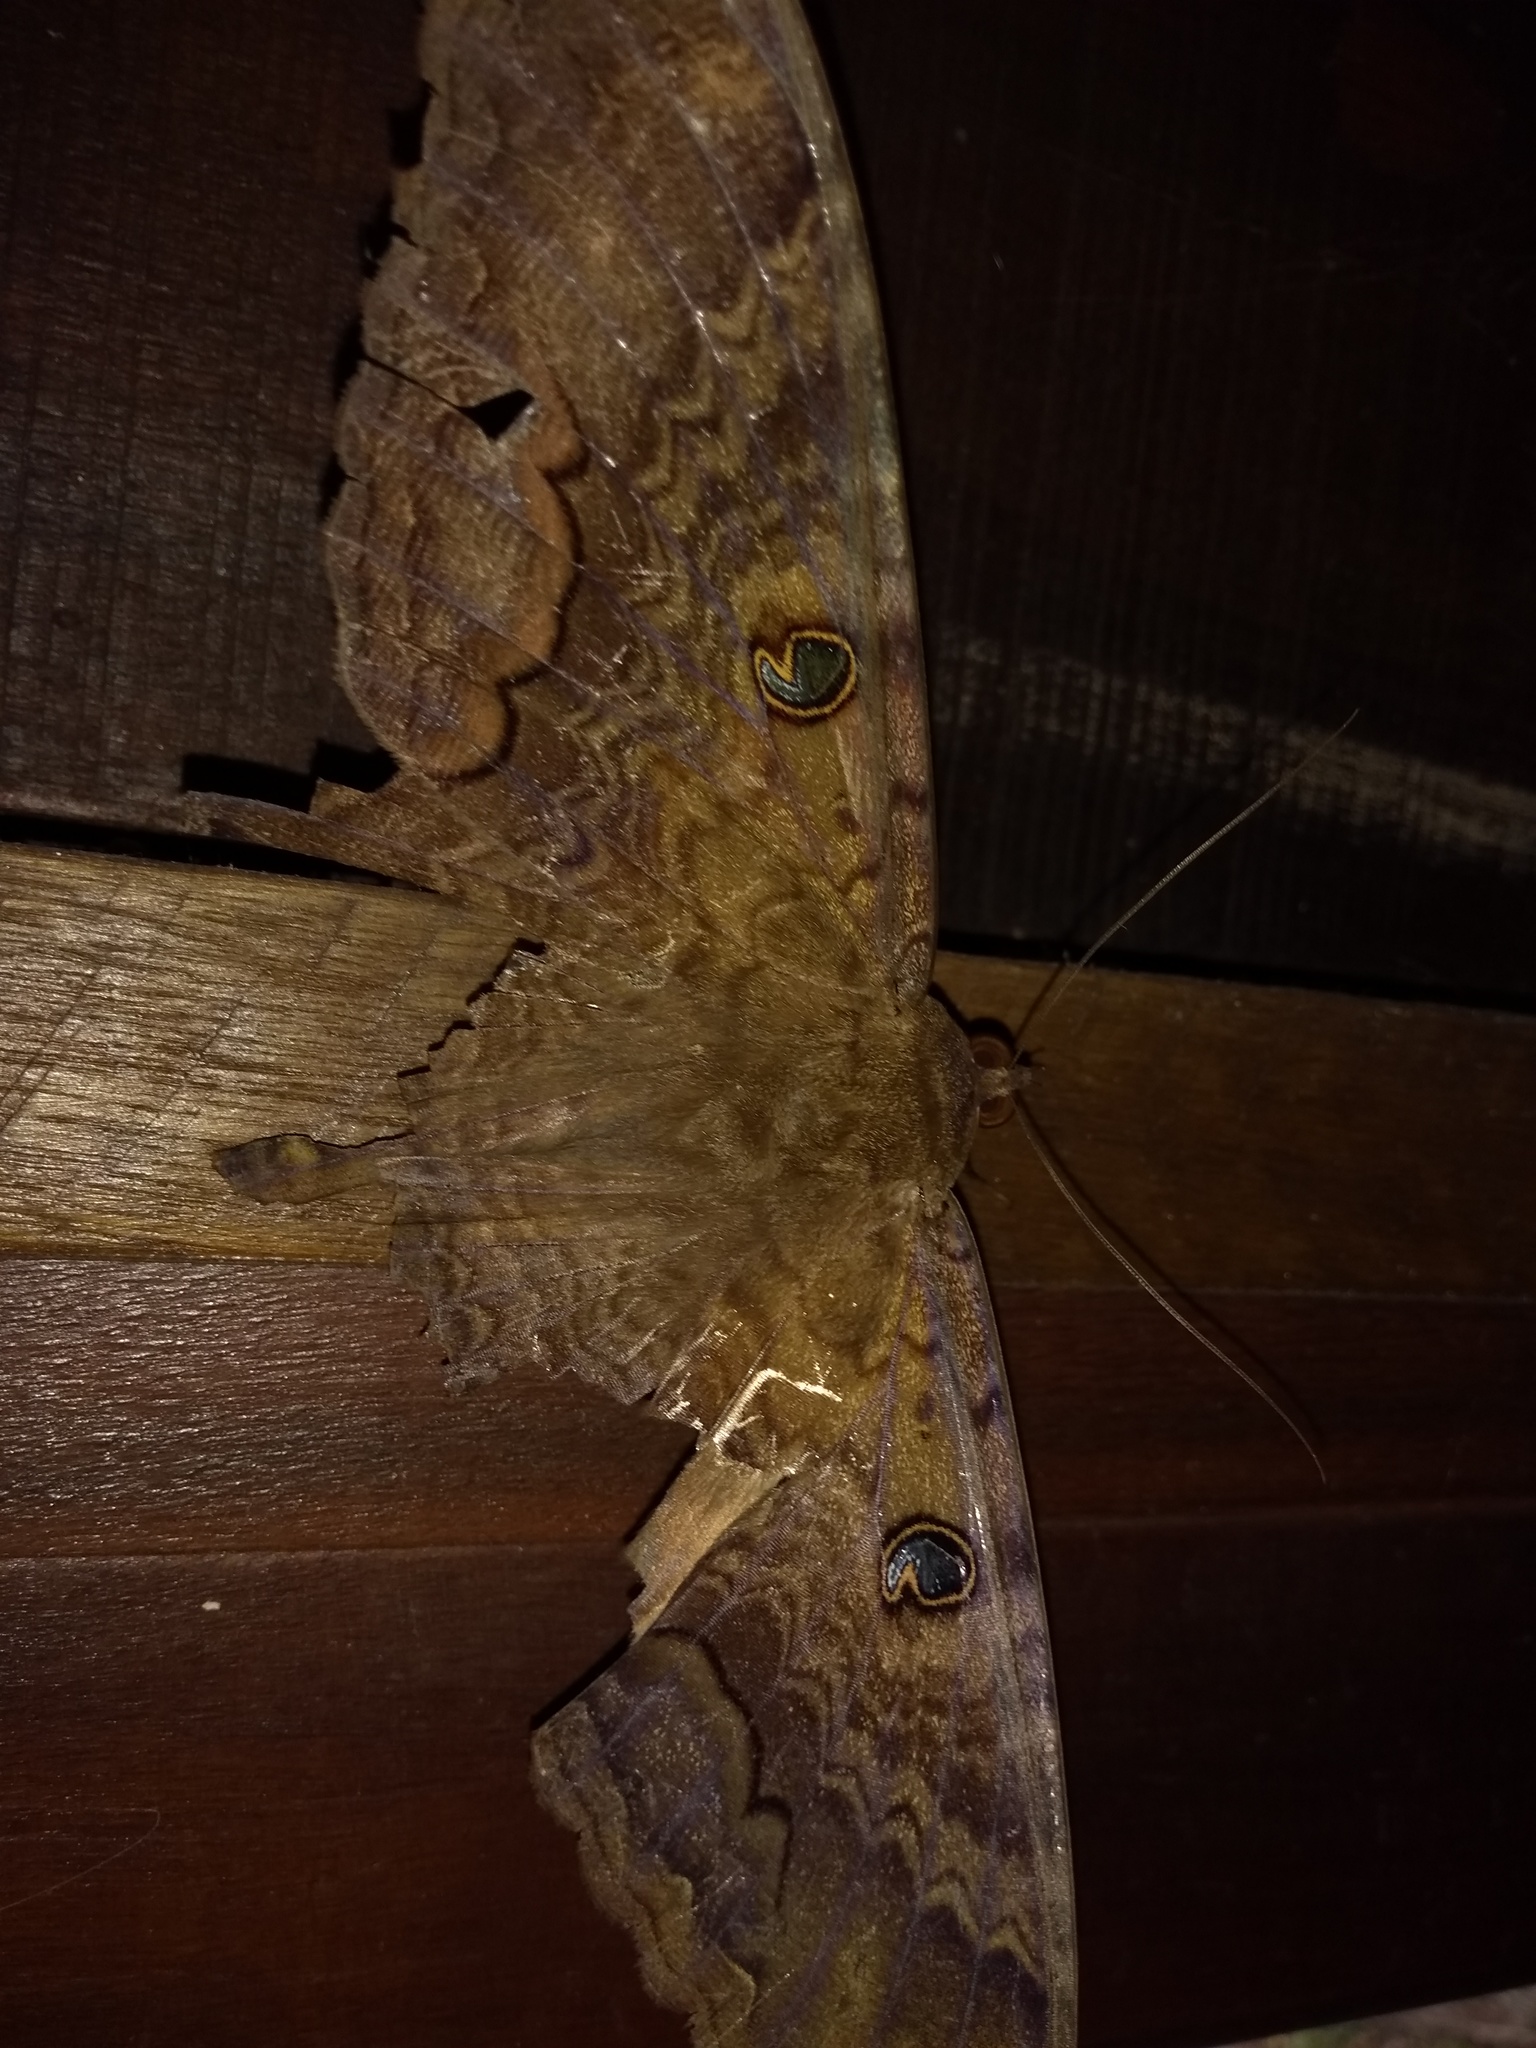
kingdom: Animalia
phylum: Arthropoda
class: Insecta
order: Lepidoptera
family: Erebidae
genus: Ascalapha
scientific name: Ascalapha odorata
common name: Black witch
